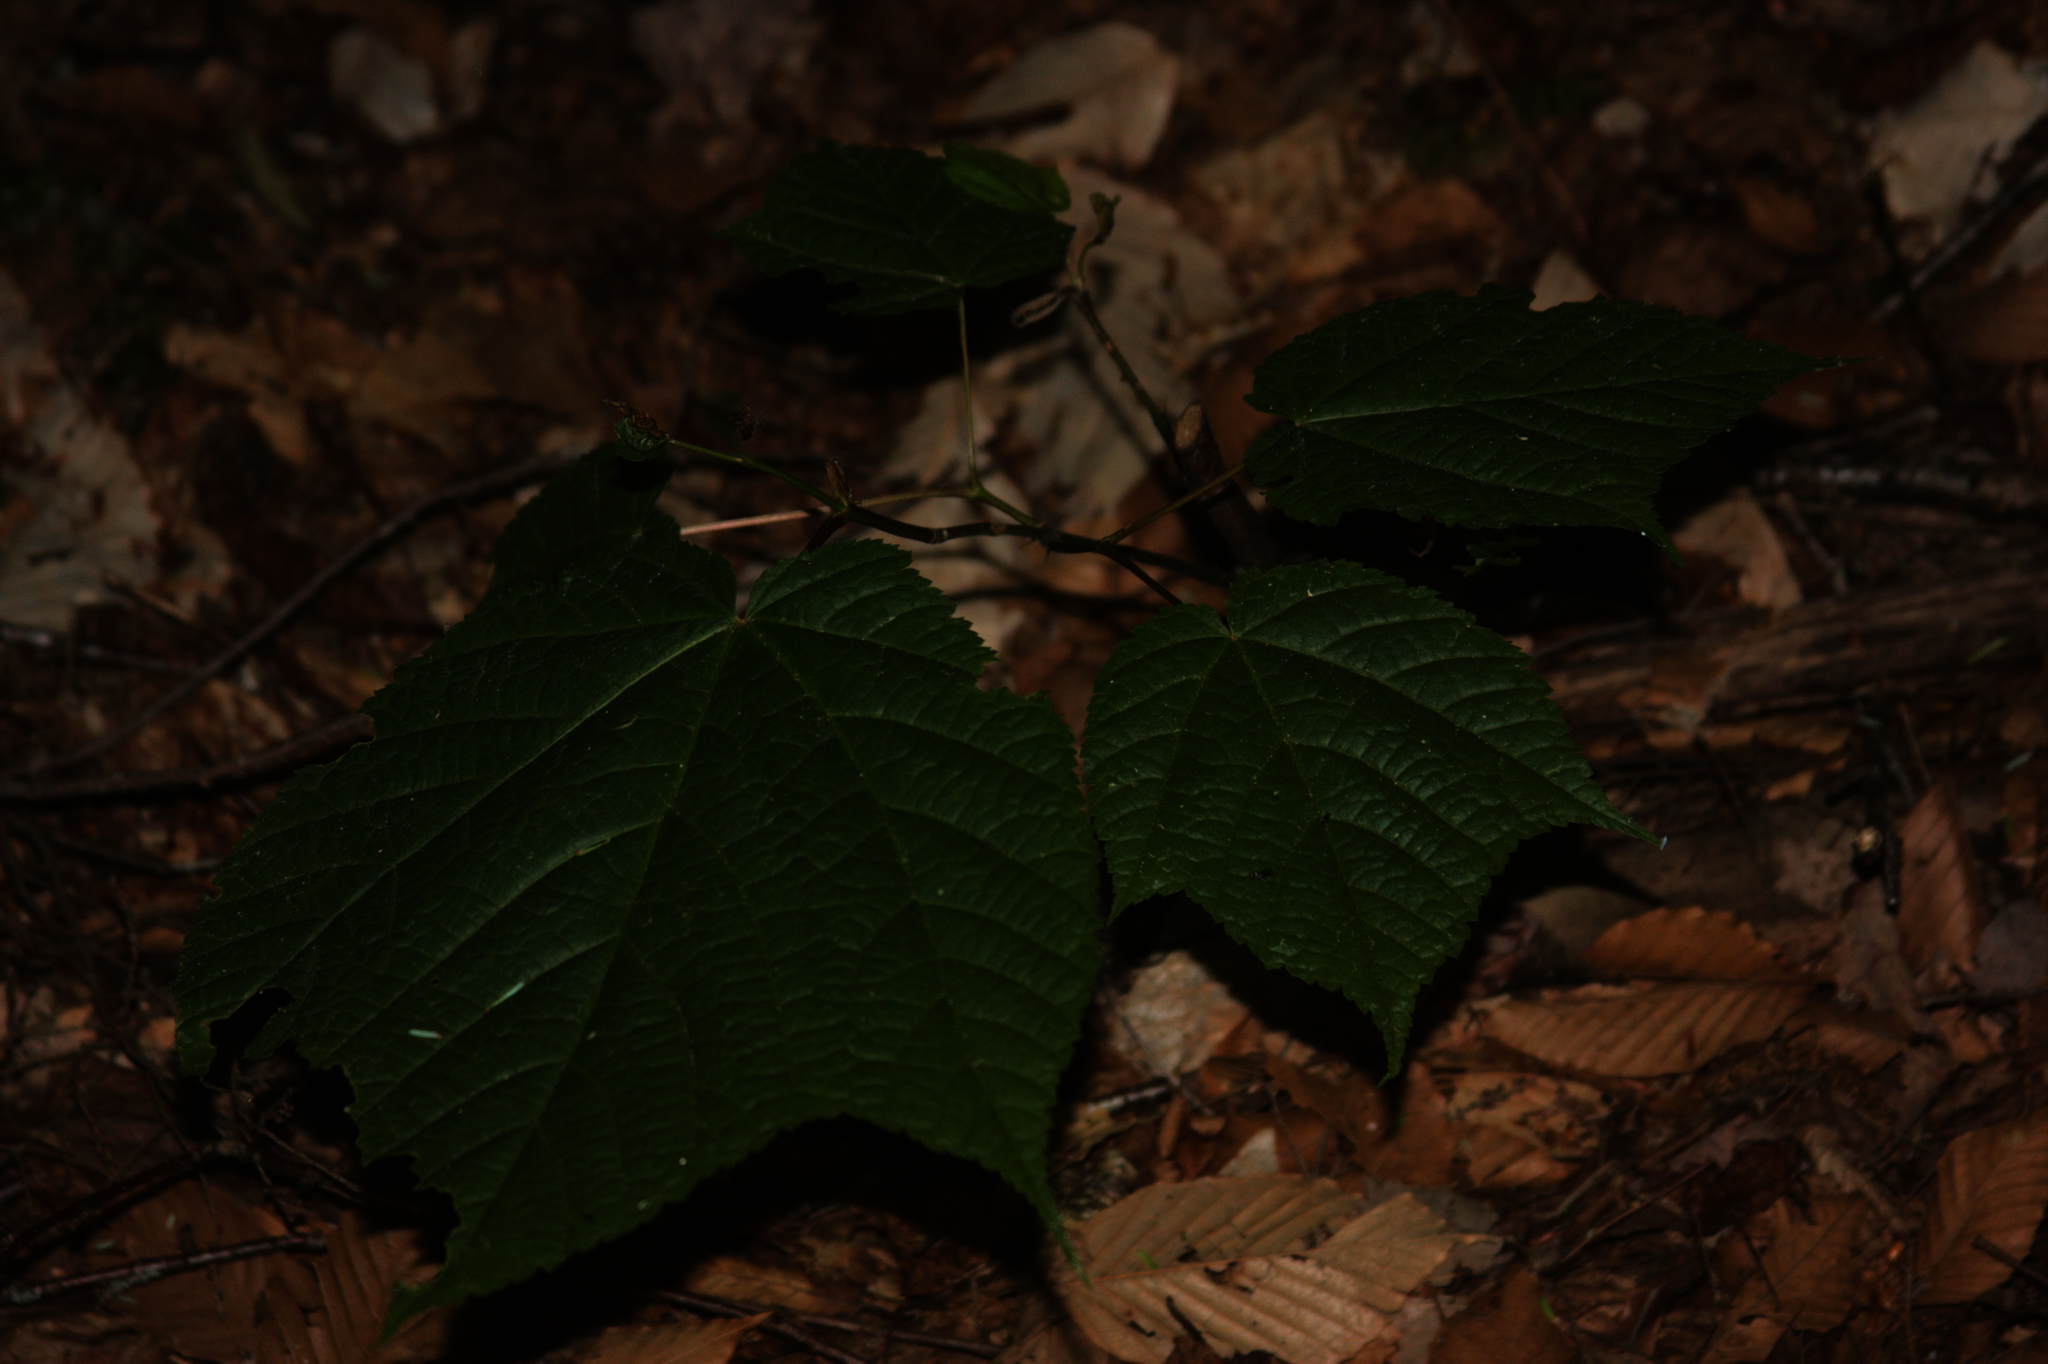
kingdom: Plantae
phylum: Tracheophyta
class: Magnoliopsida
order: Sapindales
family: Sapindaceae
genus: Acer
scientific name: Acer pensylvanicum
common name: Moosewood
